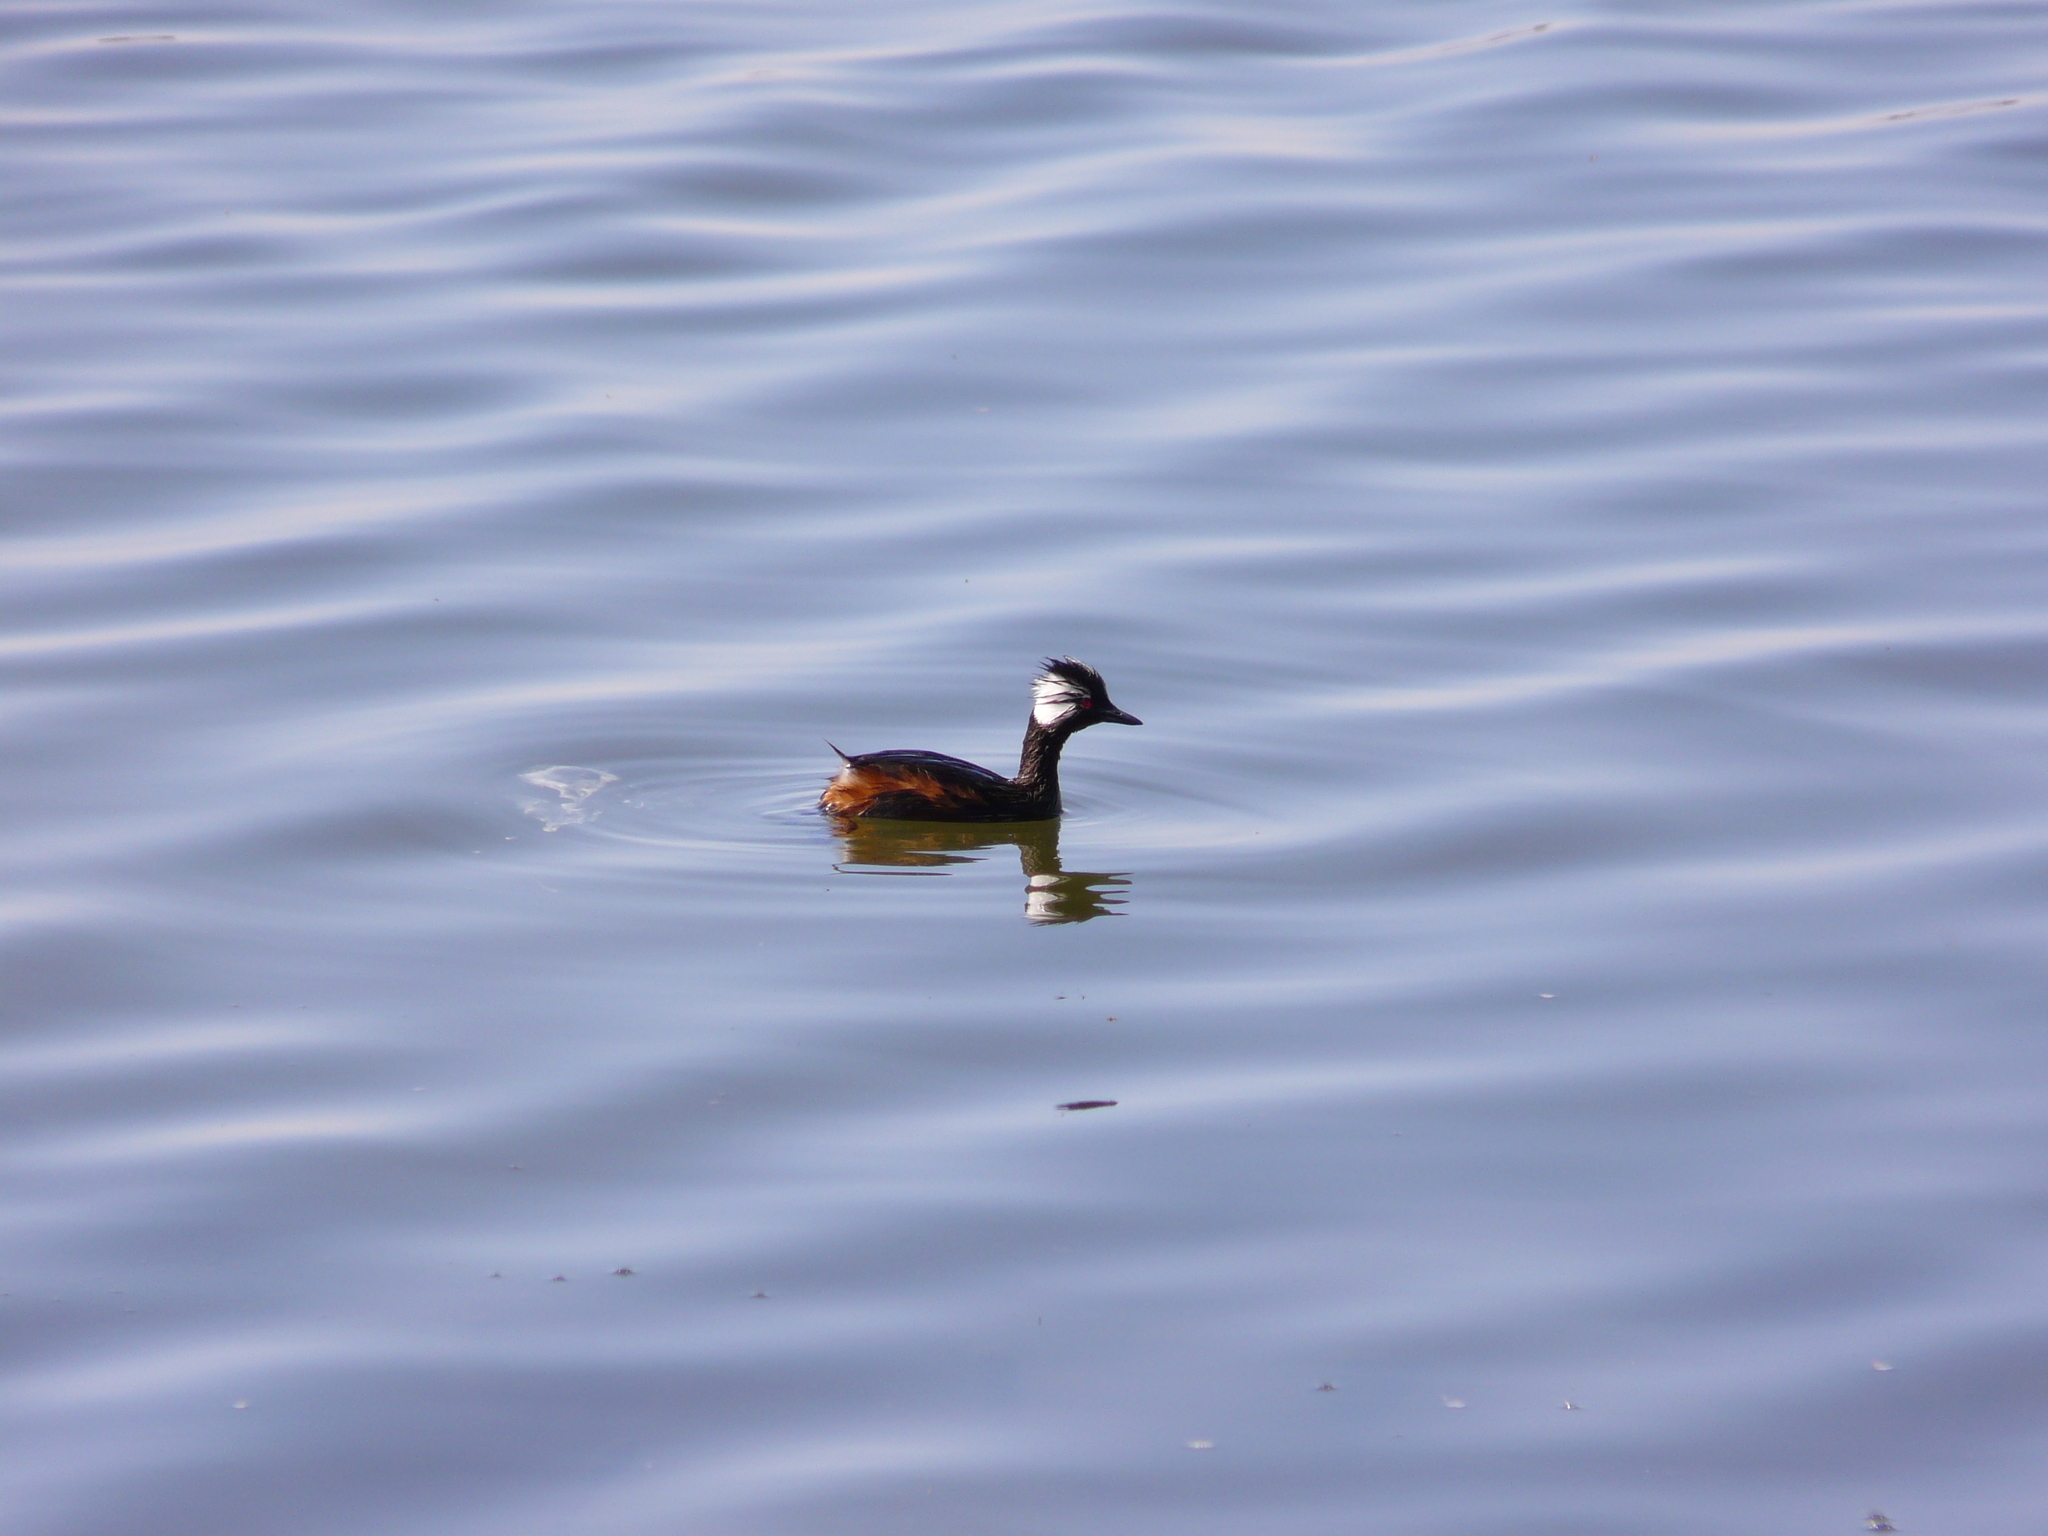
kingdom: Animalia
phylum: Chordata
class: Aves
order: Podicipediformes
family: Podicipedidae
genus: Rollandia
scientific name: Rollandia rolland
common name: White-tufted grebe
